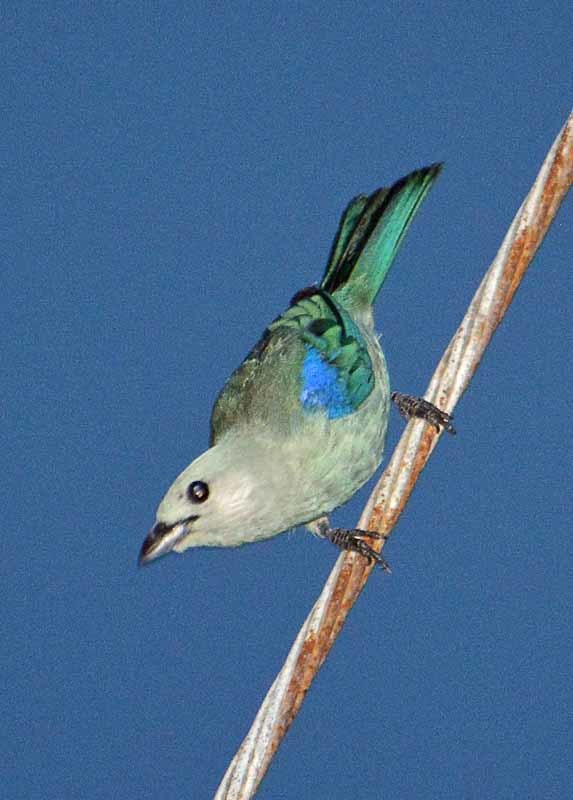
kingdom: Animalia
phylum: Chordata
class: Aves
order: Passeriformes
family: Thraupidae
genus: Thraupis
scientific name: Thraupis episcopus
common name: Blue-grey tanager
